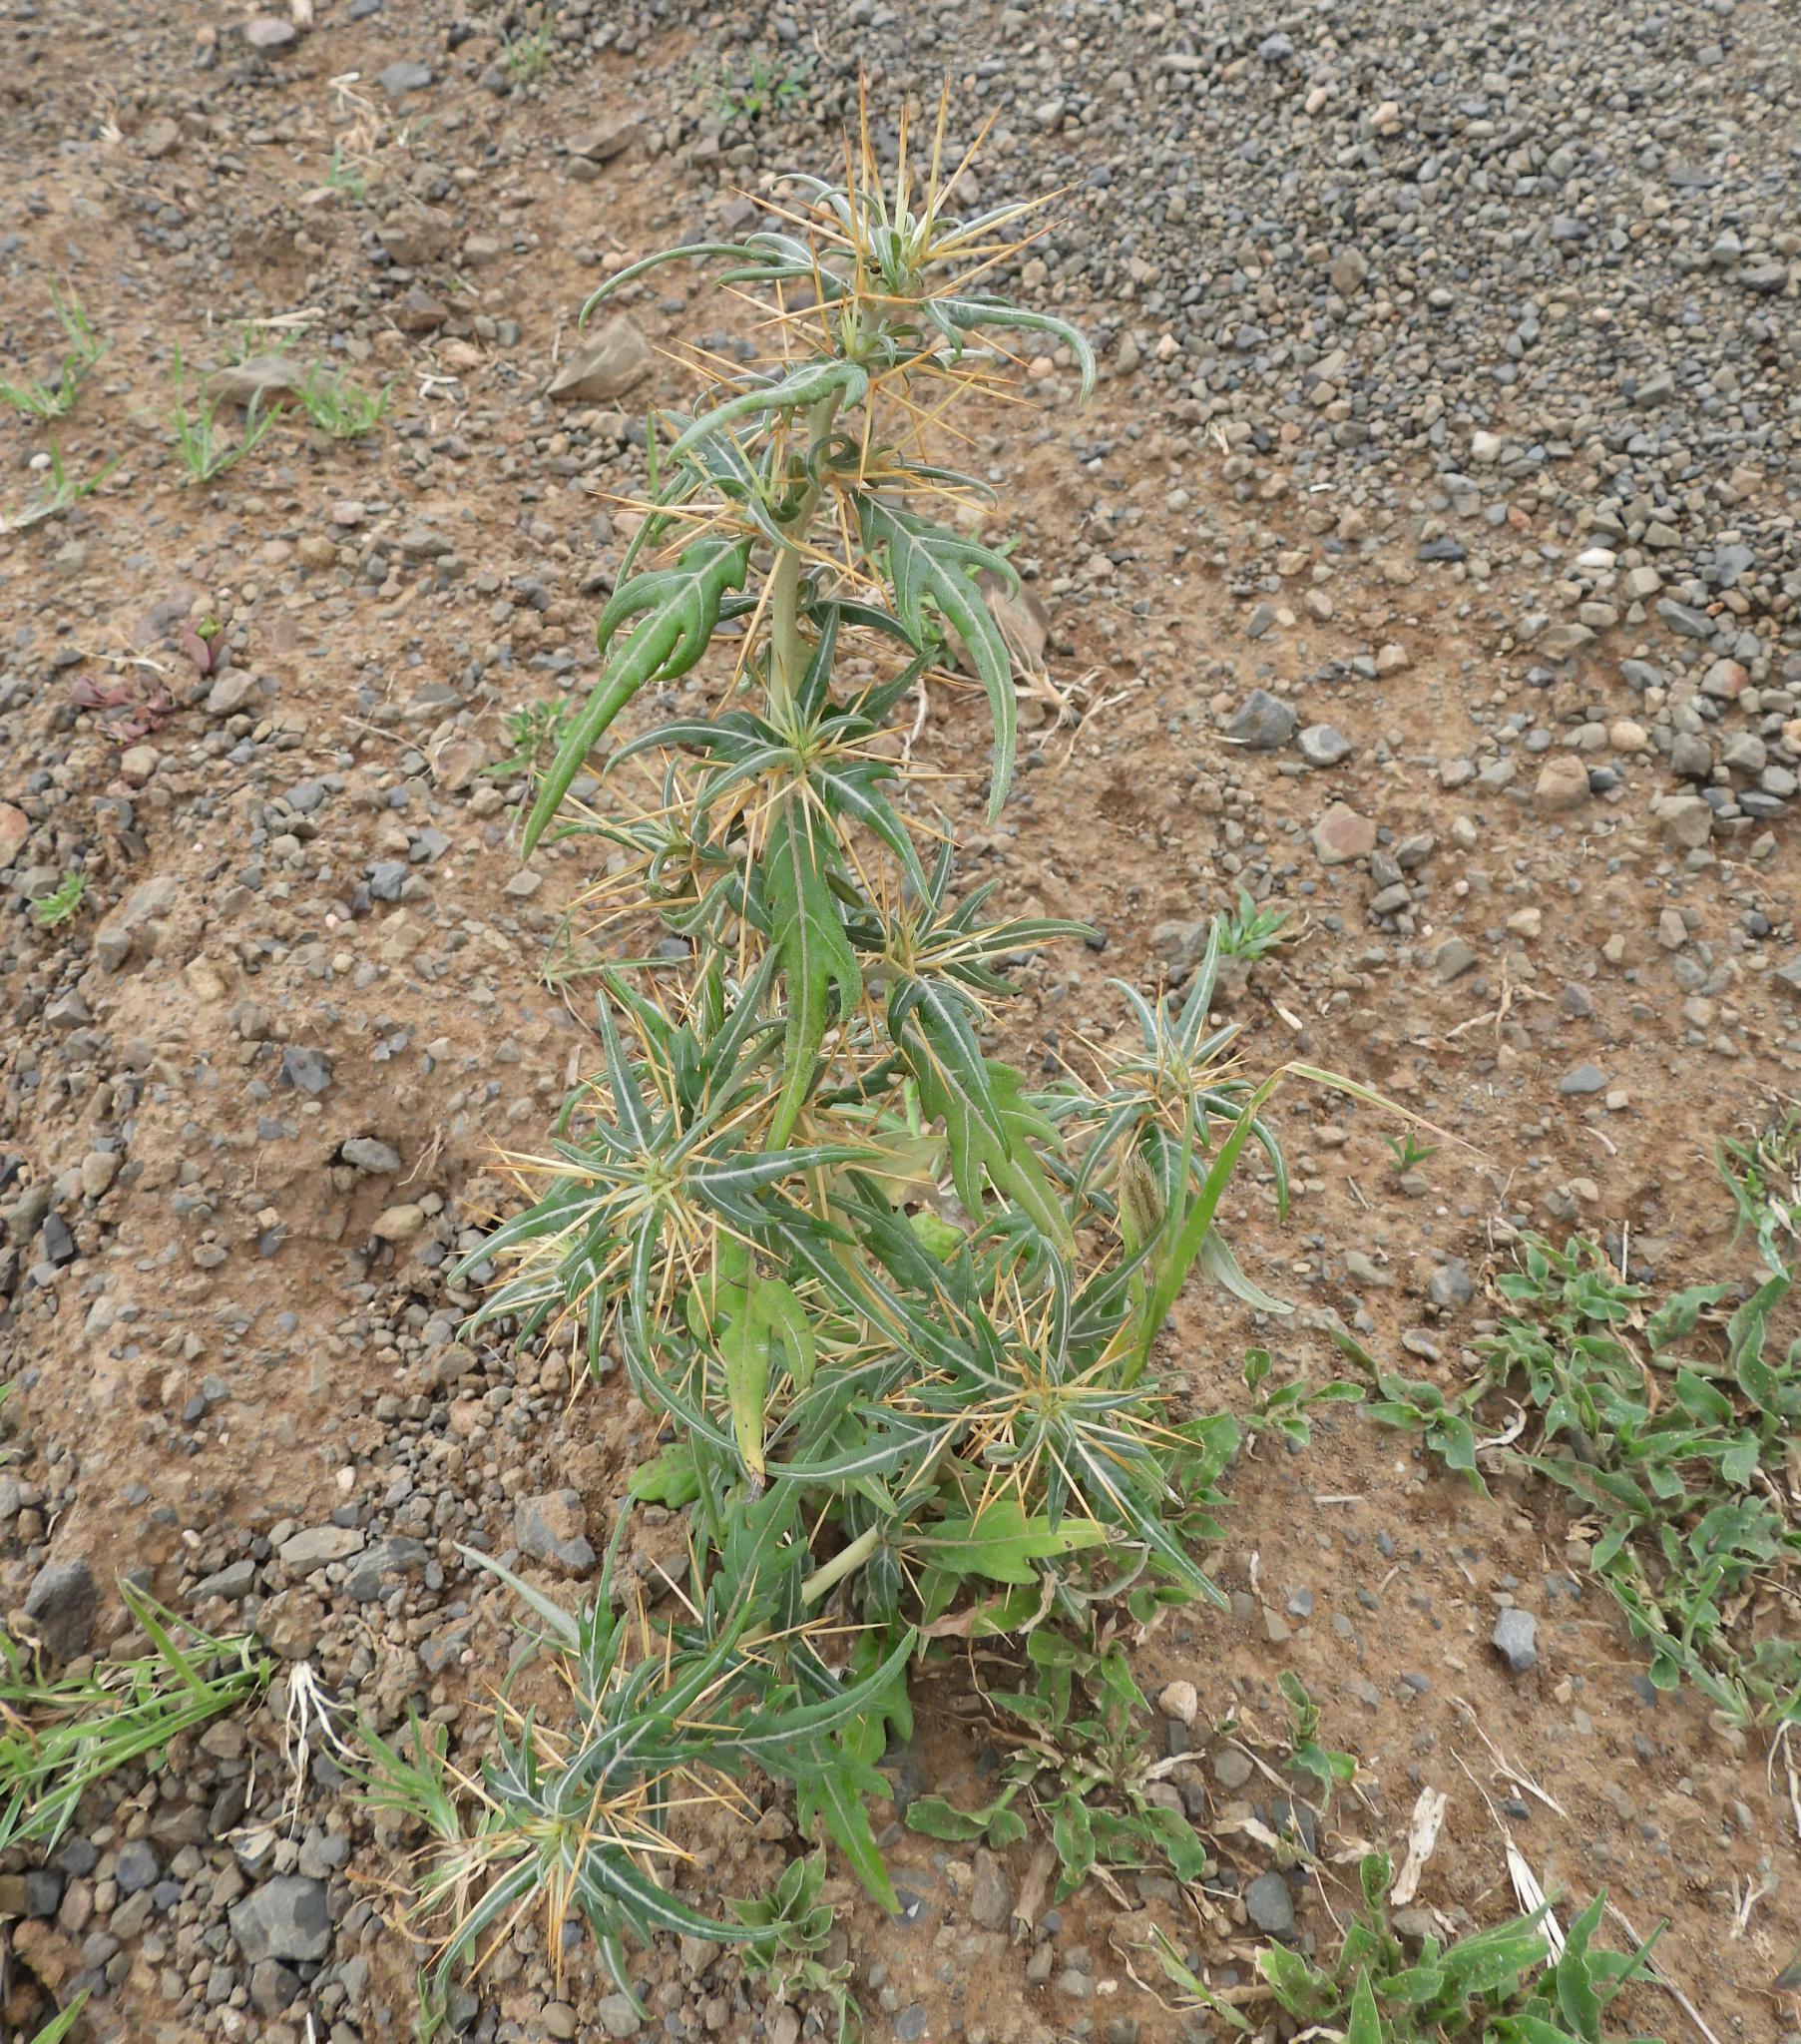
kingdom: Plantae
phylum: Tracheophyta
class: Magnoliopsida
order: Asterales
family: Asteraceae
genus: Xanthium
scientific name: Xanthium spinosum
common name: Spiny cocklebur
